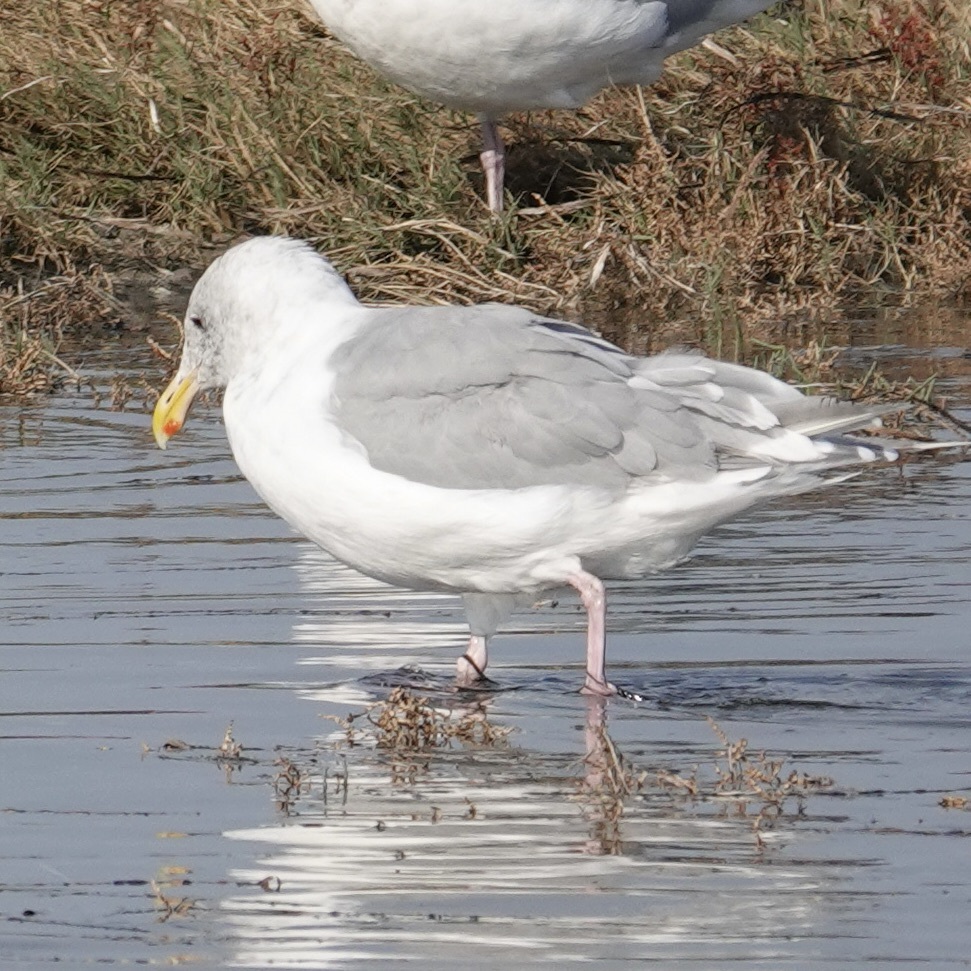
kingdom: Animalia
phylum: Chordata
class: Aves
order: Charadriiformes
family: Laridae
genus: Larus
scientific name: Larus glaucescens
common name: Glaucous-winged gull
